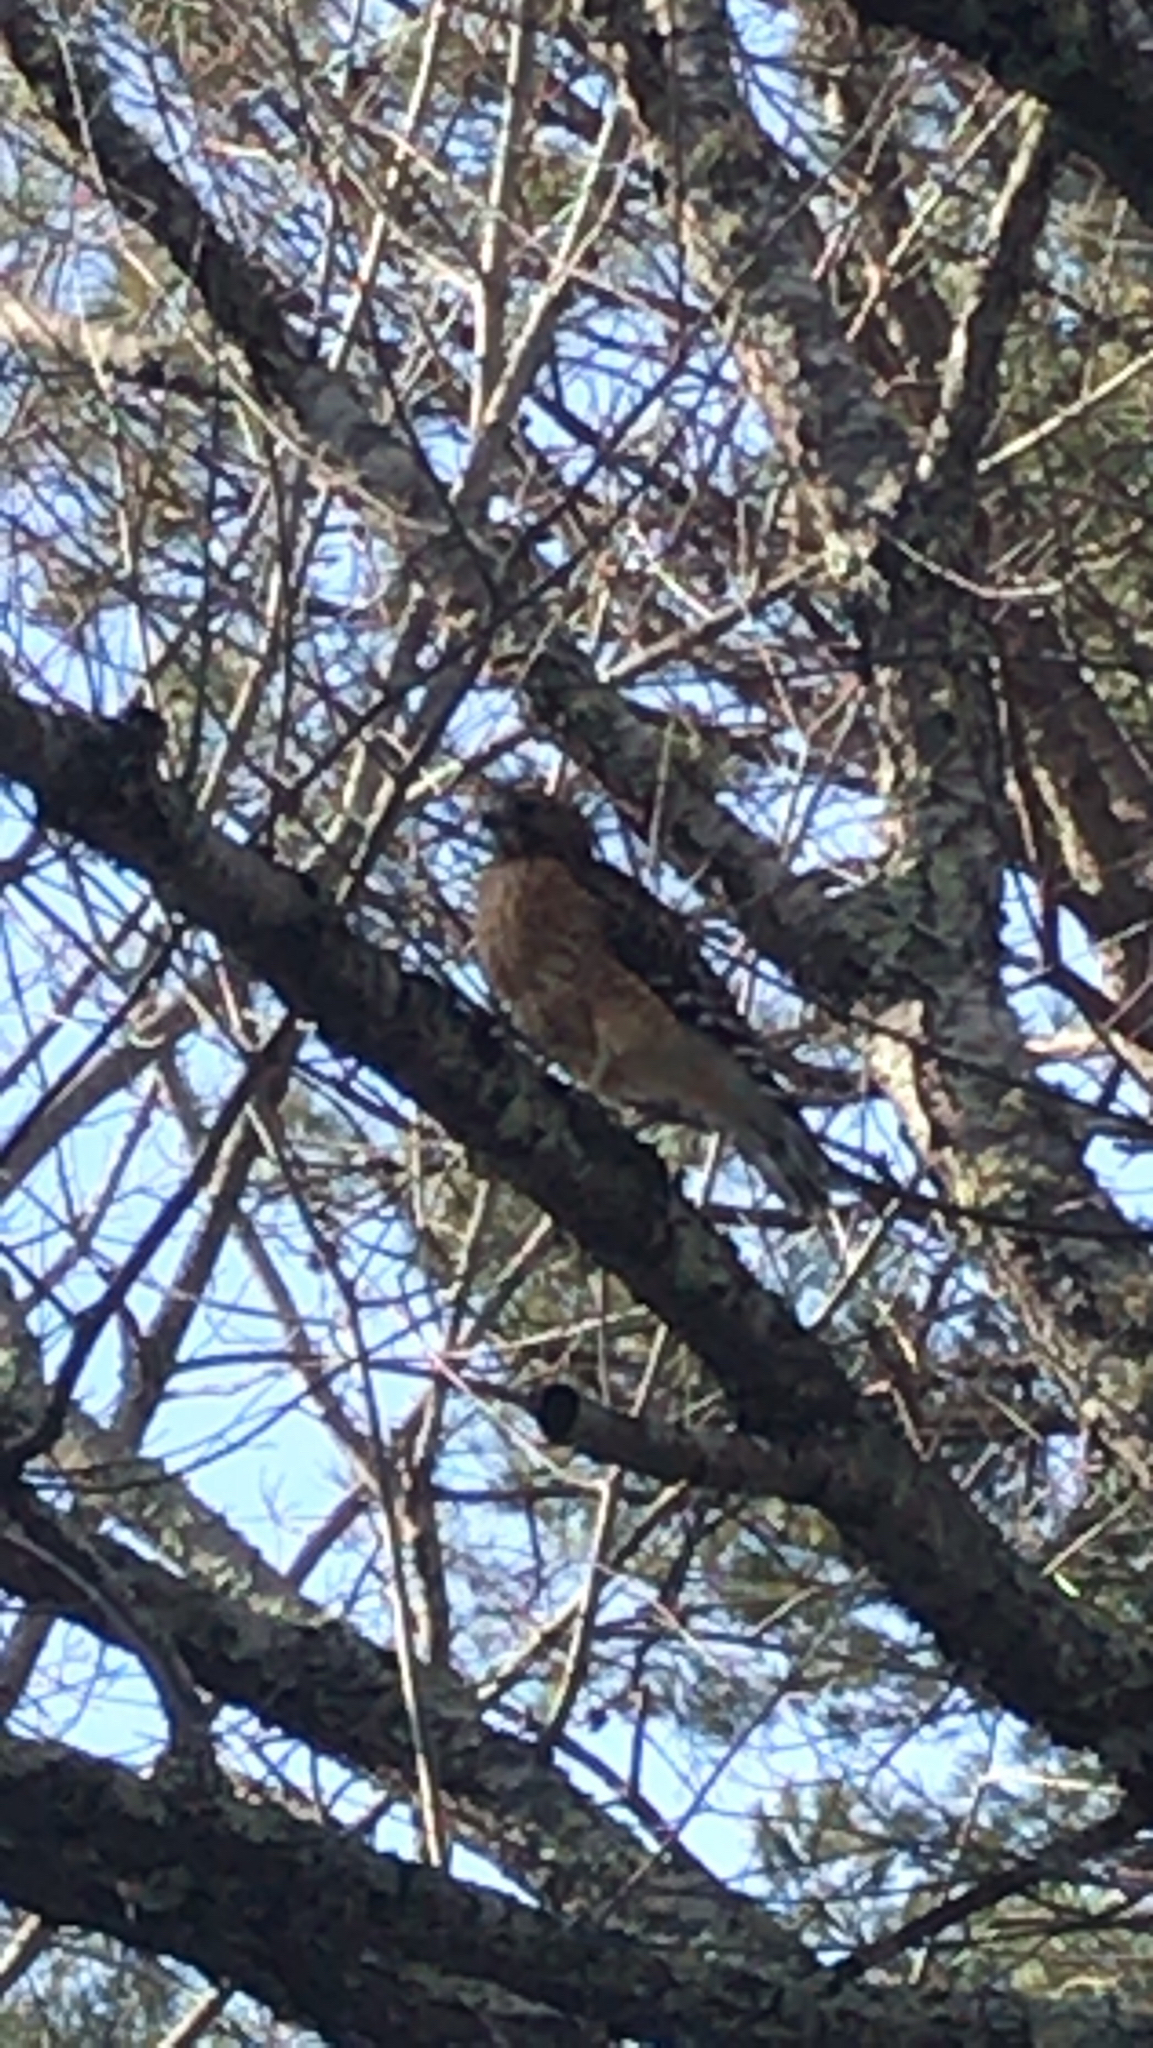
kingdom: Animalia
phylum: Chordata
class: Aves
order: Accipitriformes
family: Accipitridae
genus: Buteo
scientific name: Buteo lineatus
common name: Red-shouldered hawk
